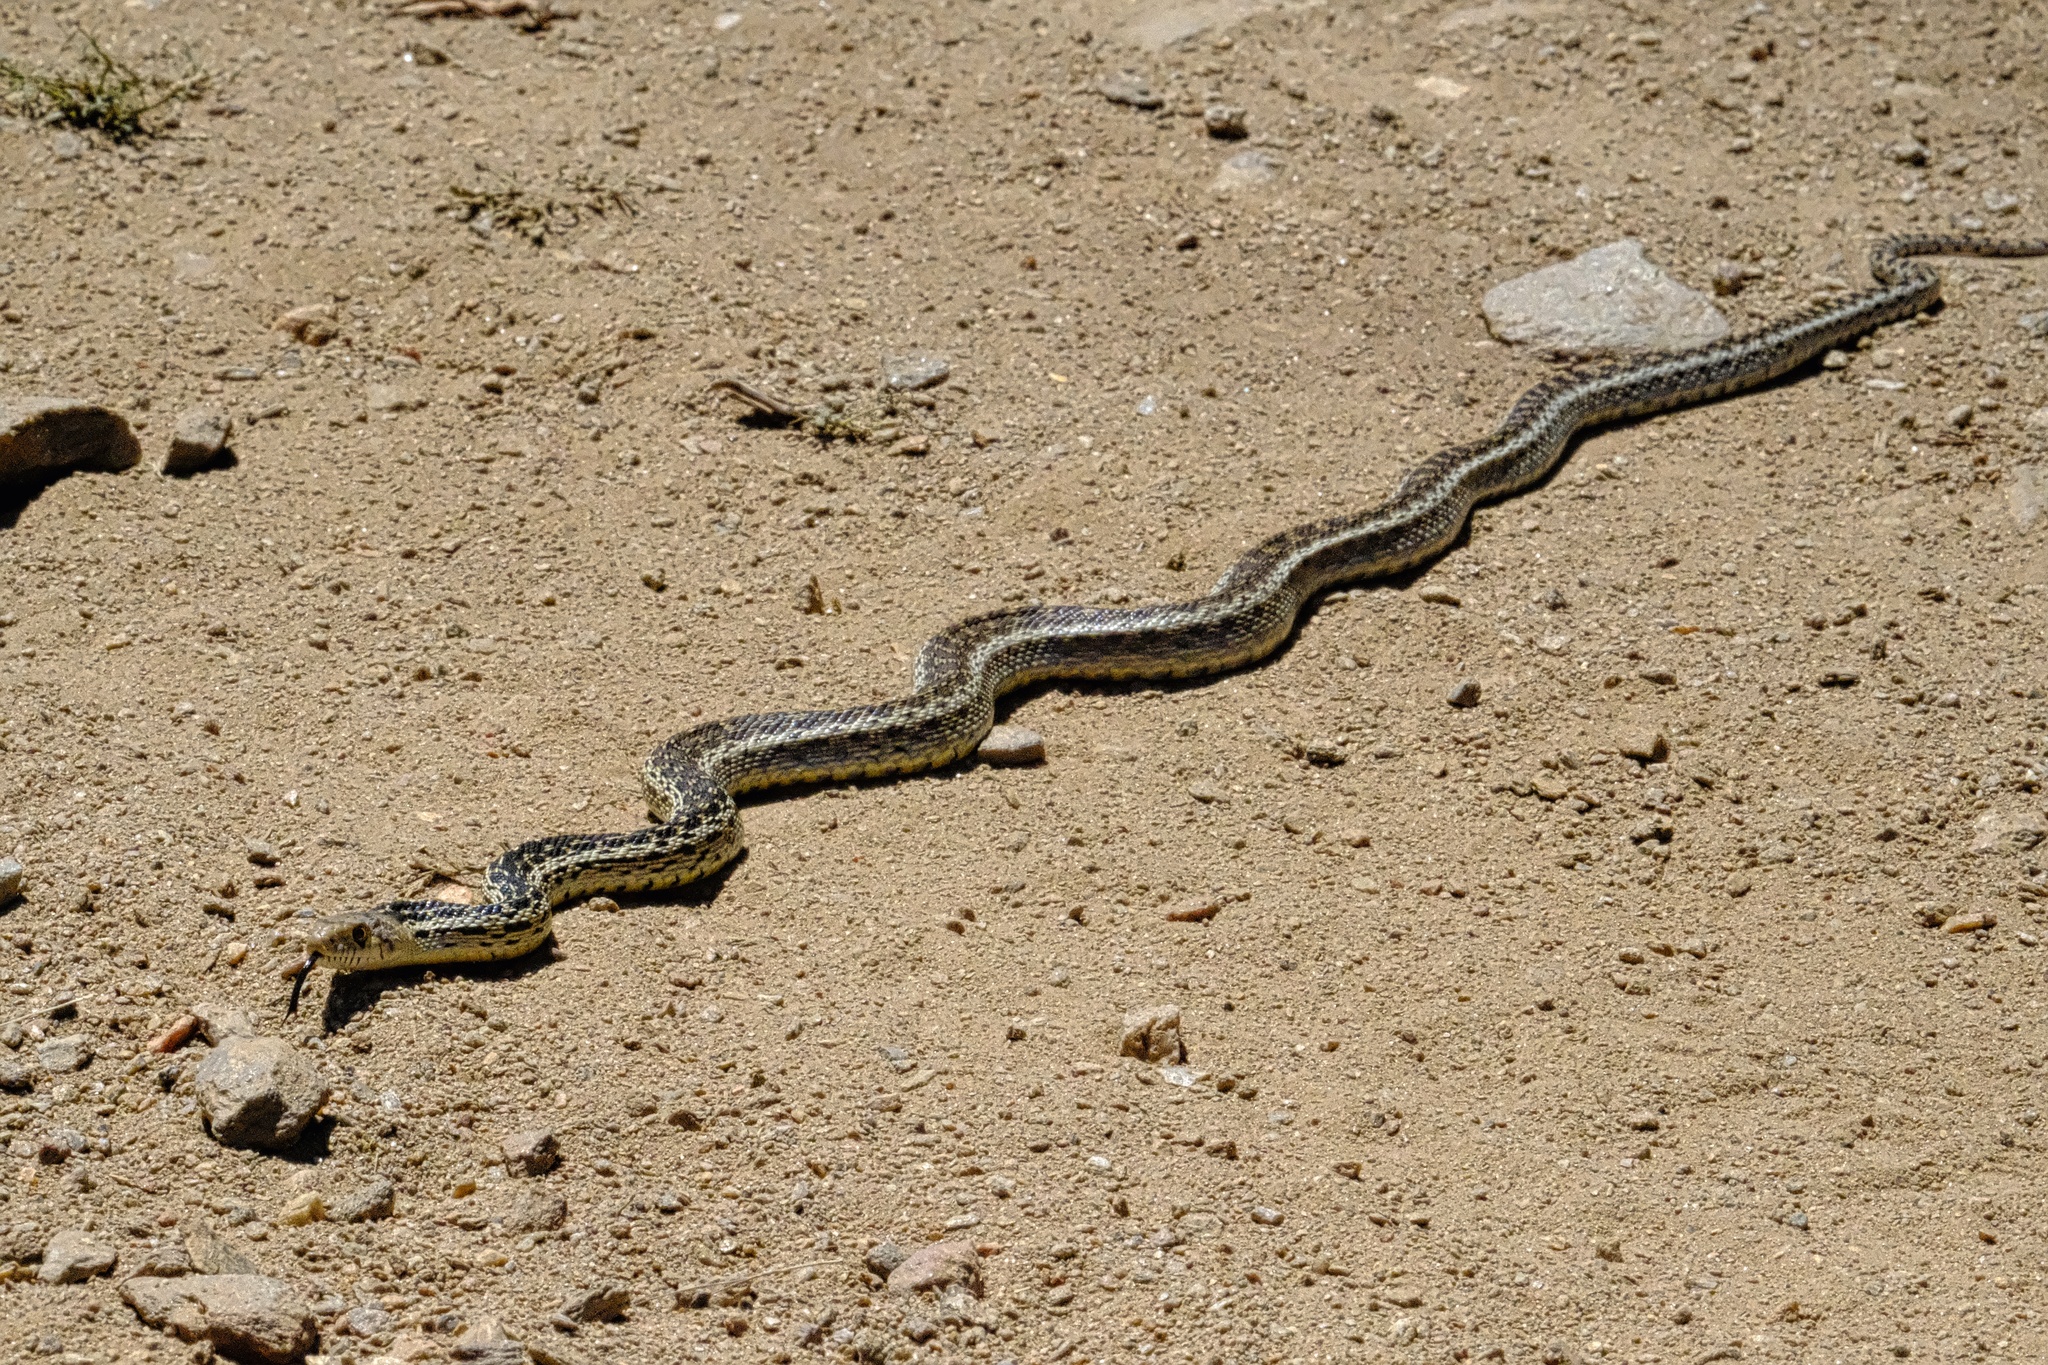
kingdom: Animalia
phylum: Chordata
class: Squamata
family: Colubridae
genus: Pituophis
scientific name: Pituophis catenifer
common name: Gopher snake
